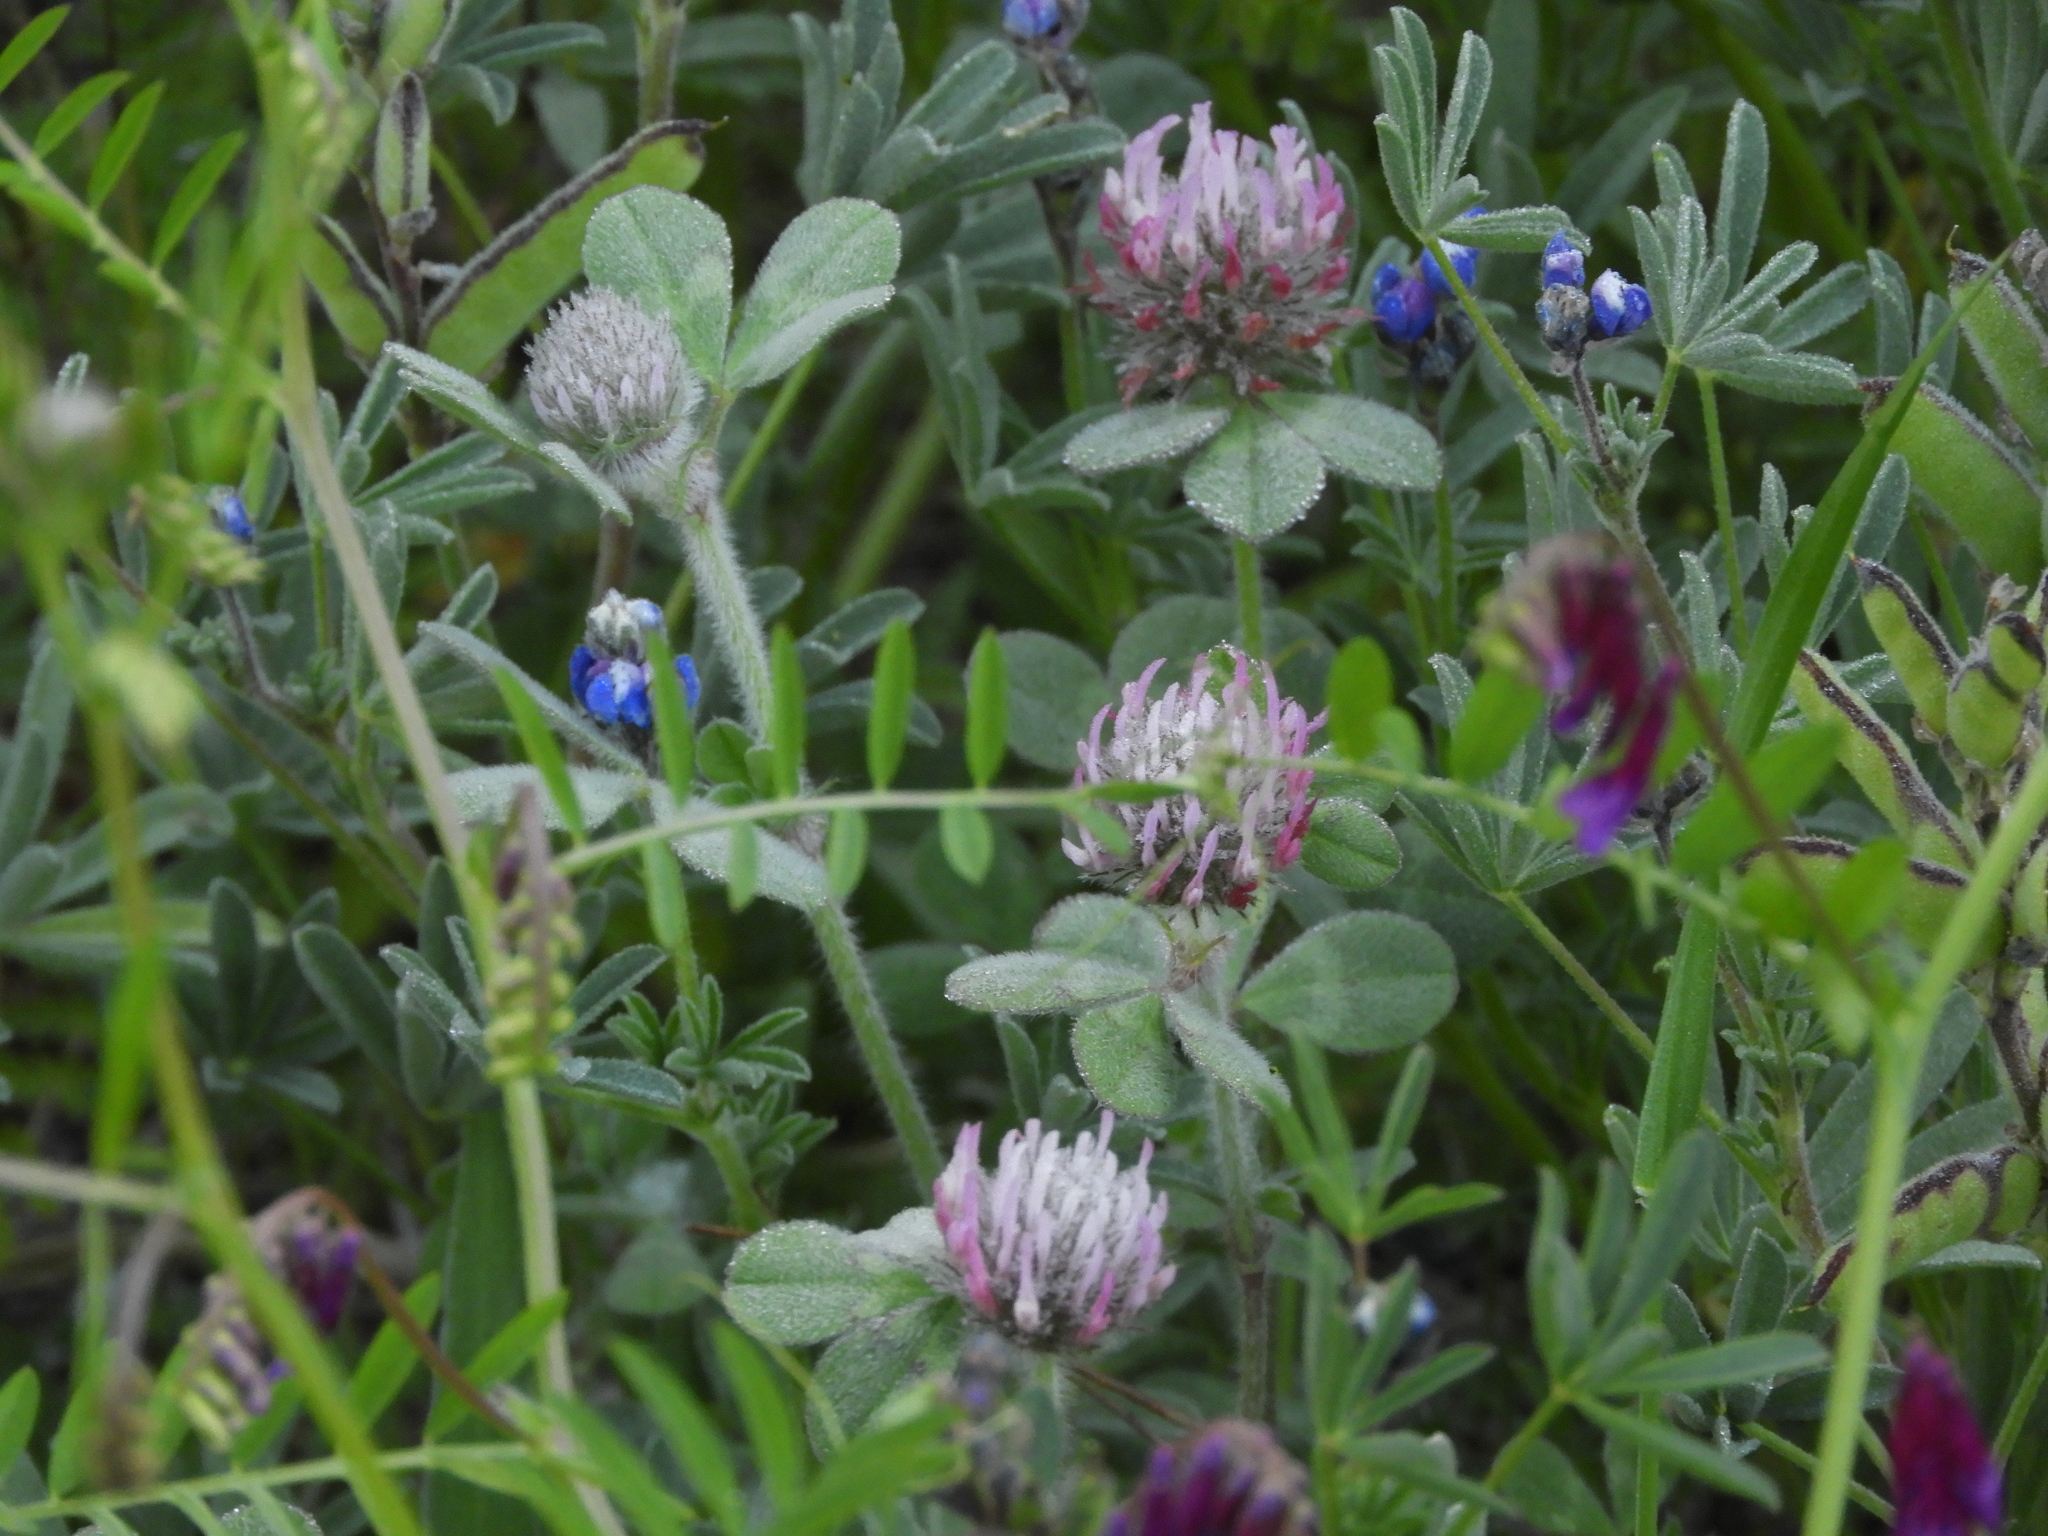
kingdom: Plantae
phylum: Tracheophyta
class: Magnoliopsida
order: Fabales
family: Fabaceae
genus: Trifolium
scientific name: Trifolium hirtum
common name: Rose clover
